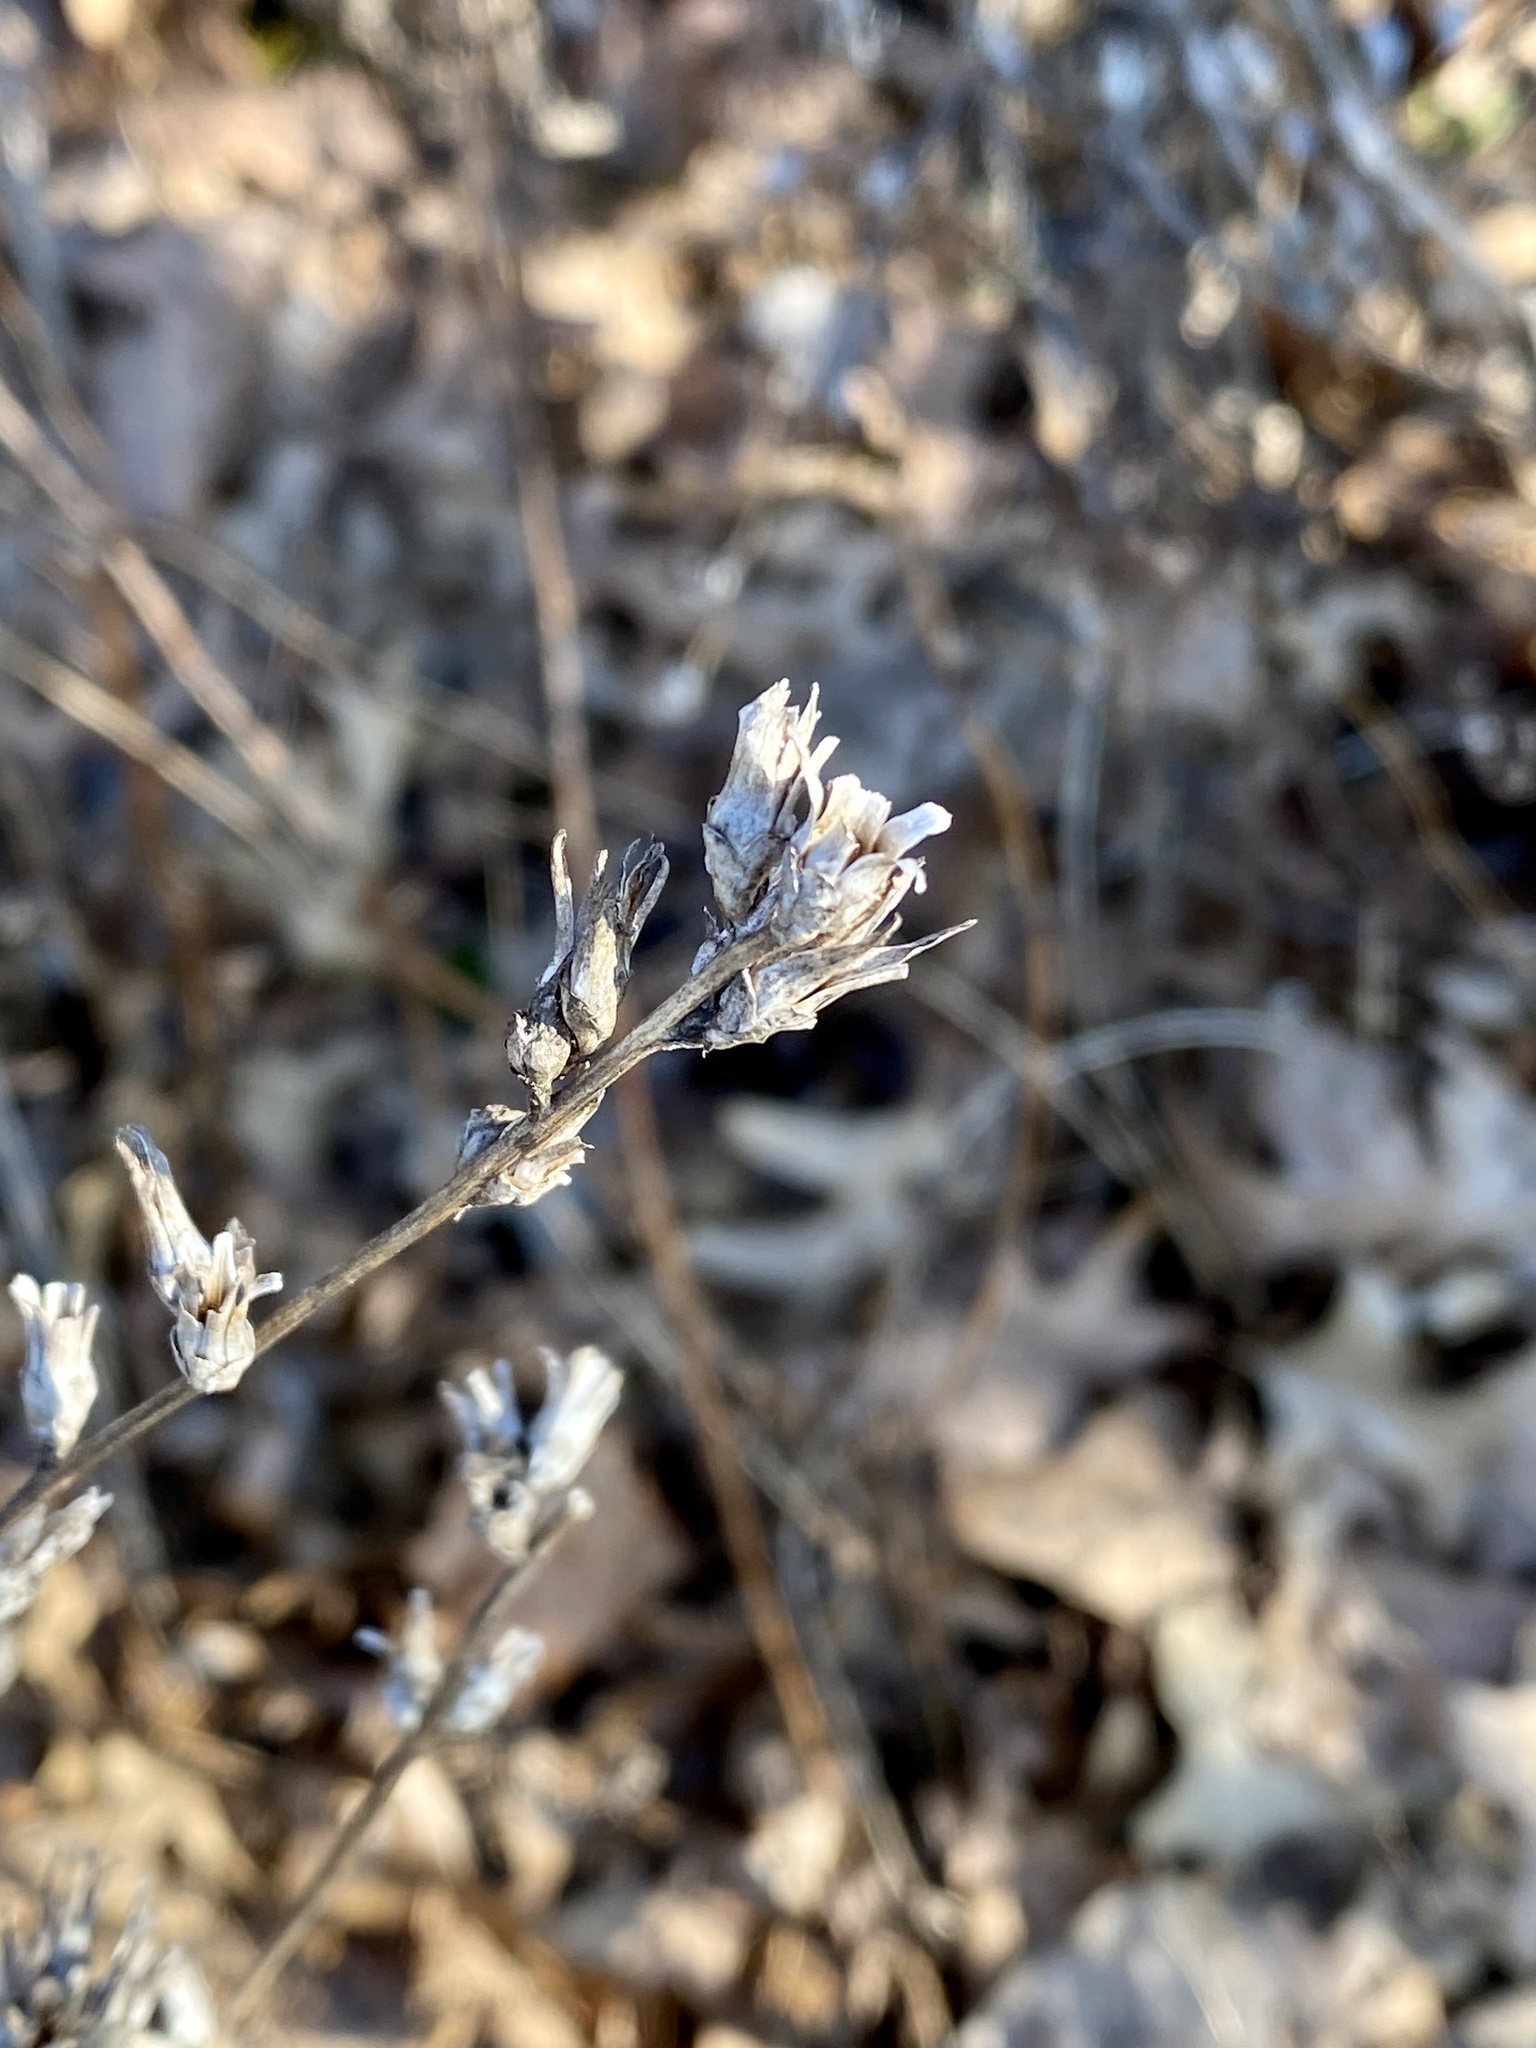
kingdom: Plantae
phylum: Tracheophyta
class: Magnoliopsida
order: Asterales
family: Asteraceae
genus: Cichorium
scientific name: Cichorium intybus
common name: Chicory
